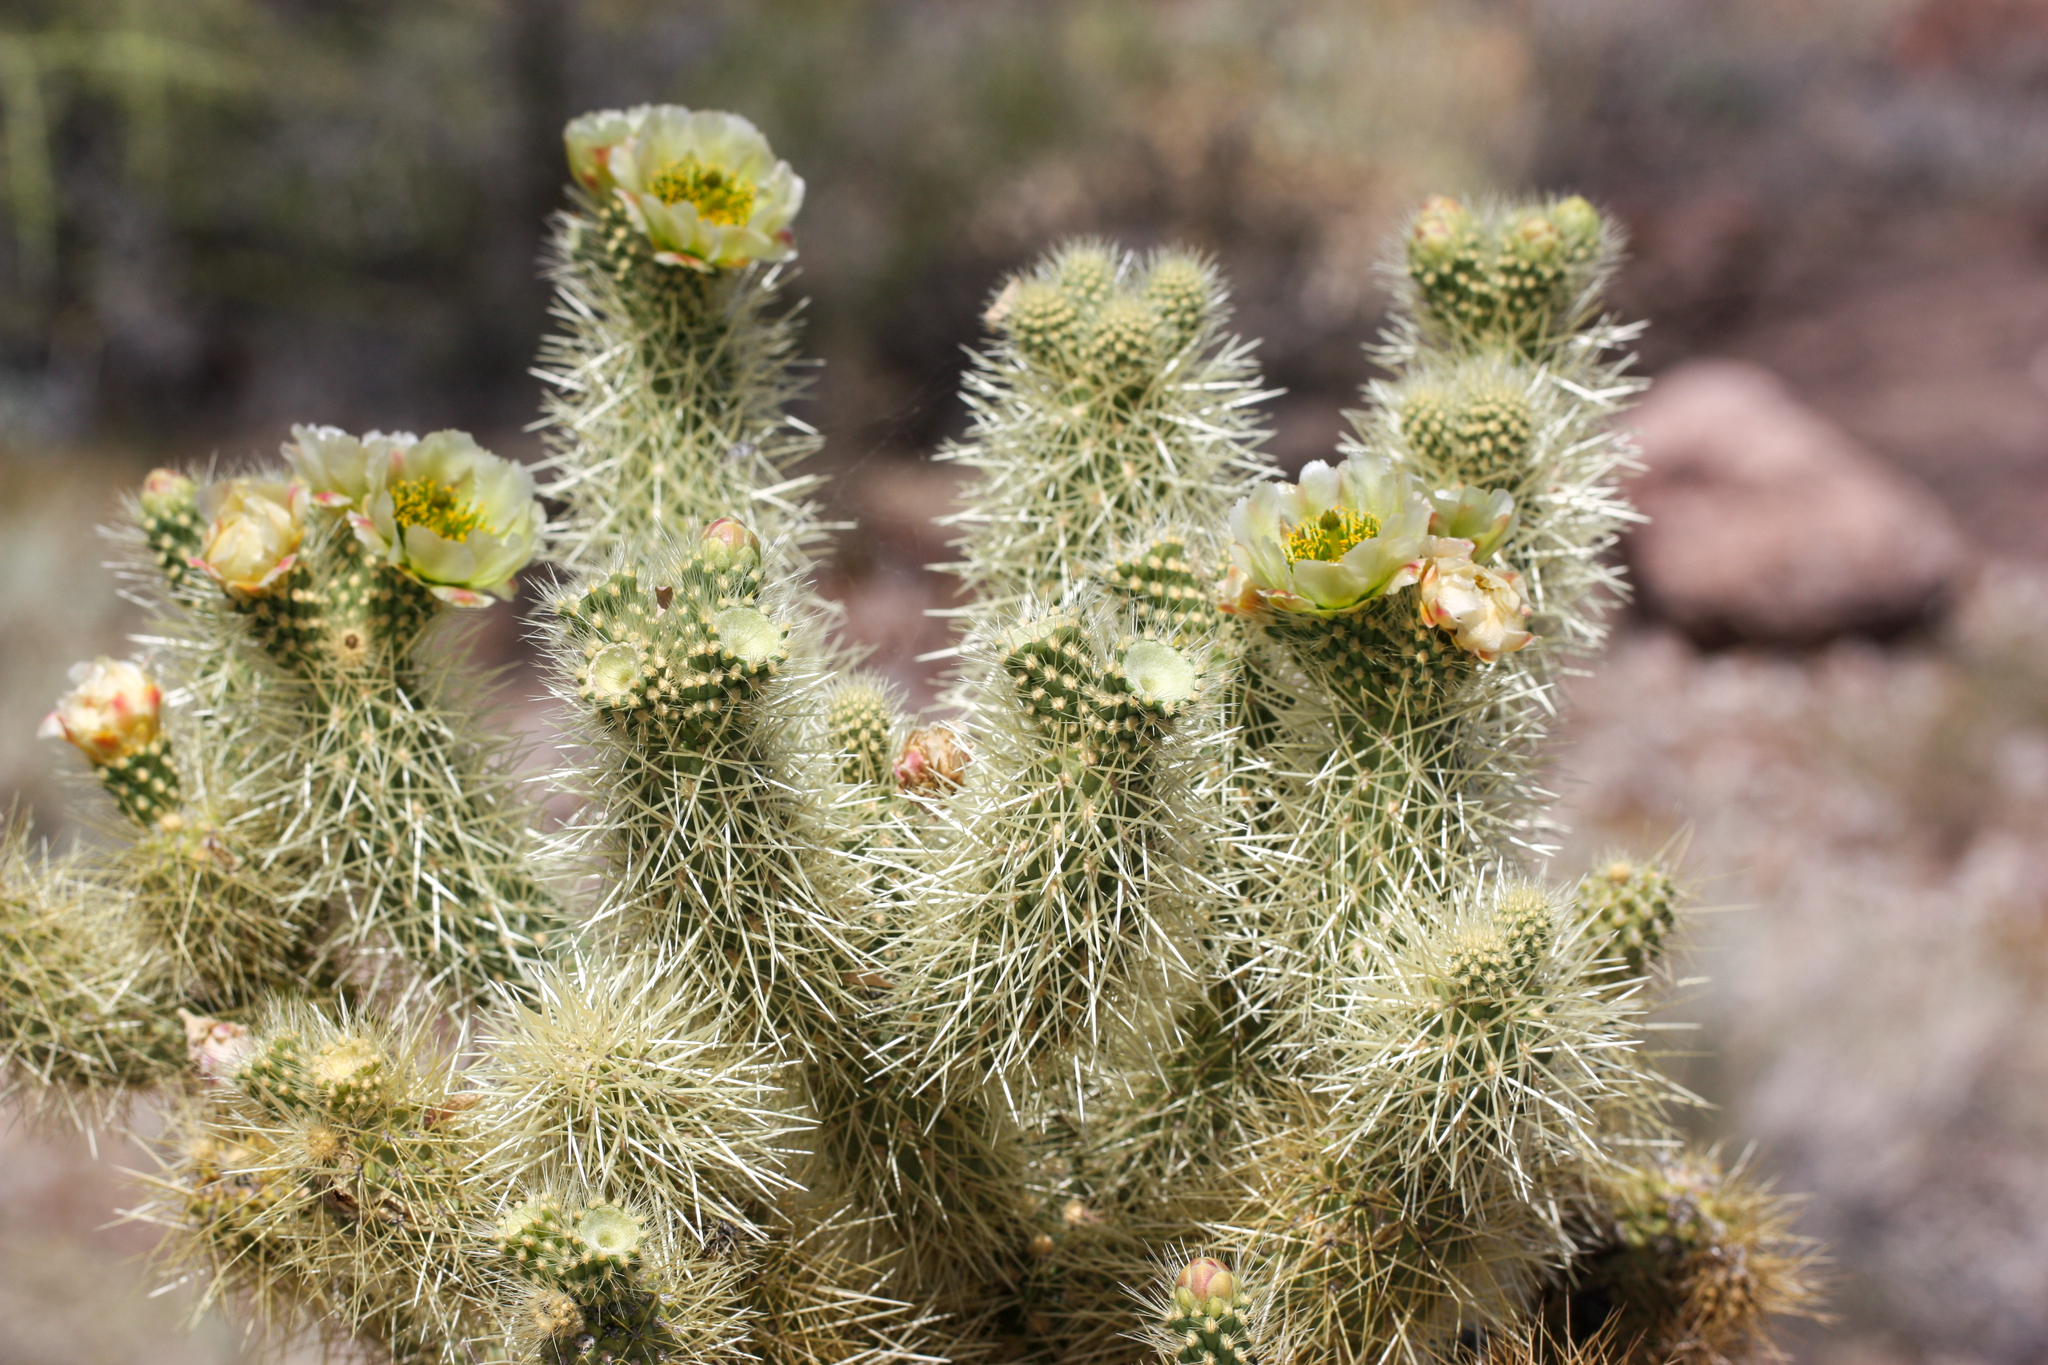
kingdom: Plantae
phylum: Tracheophyta
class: Magnoliopsida
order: Caryophyllales
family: Cactaceae
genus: Cylindropuntia
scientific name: Cylindropuntia fosbergii
